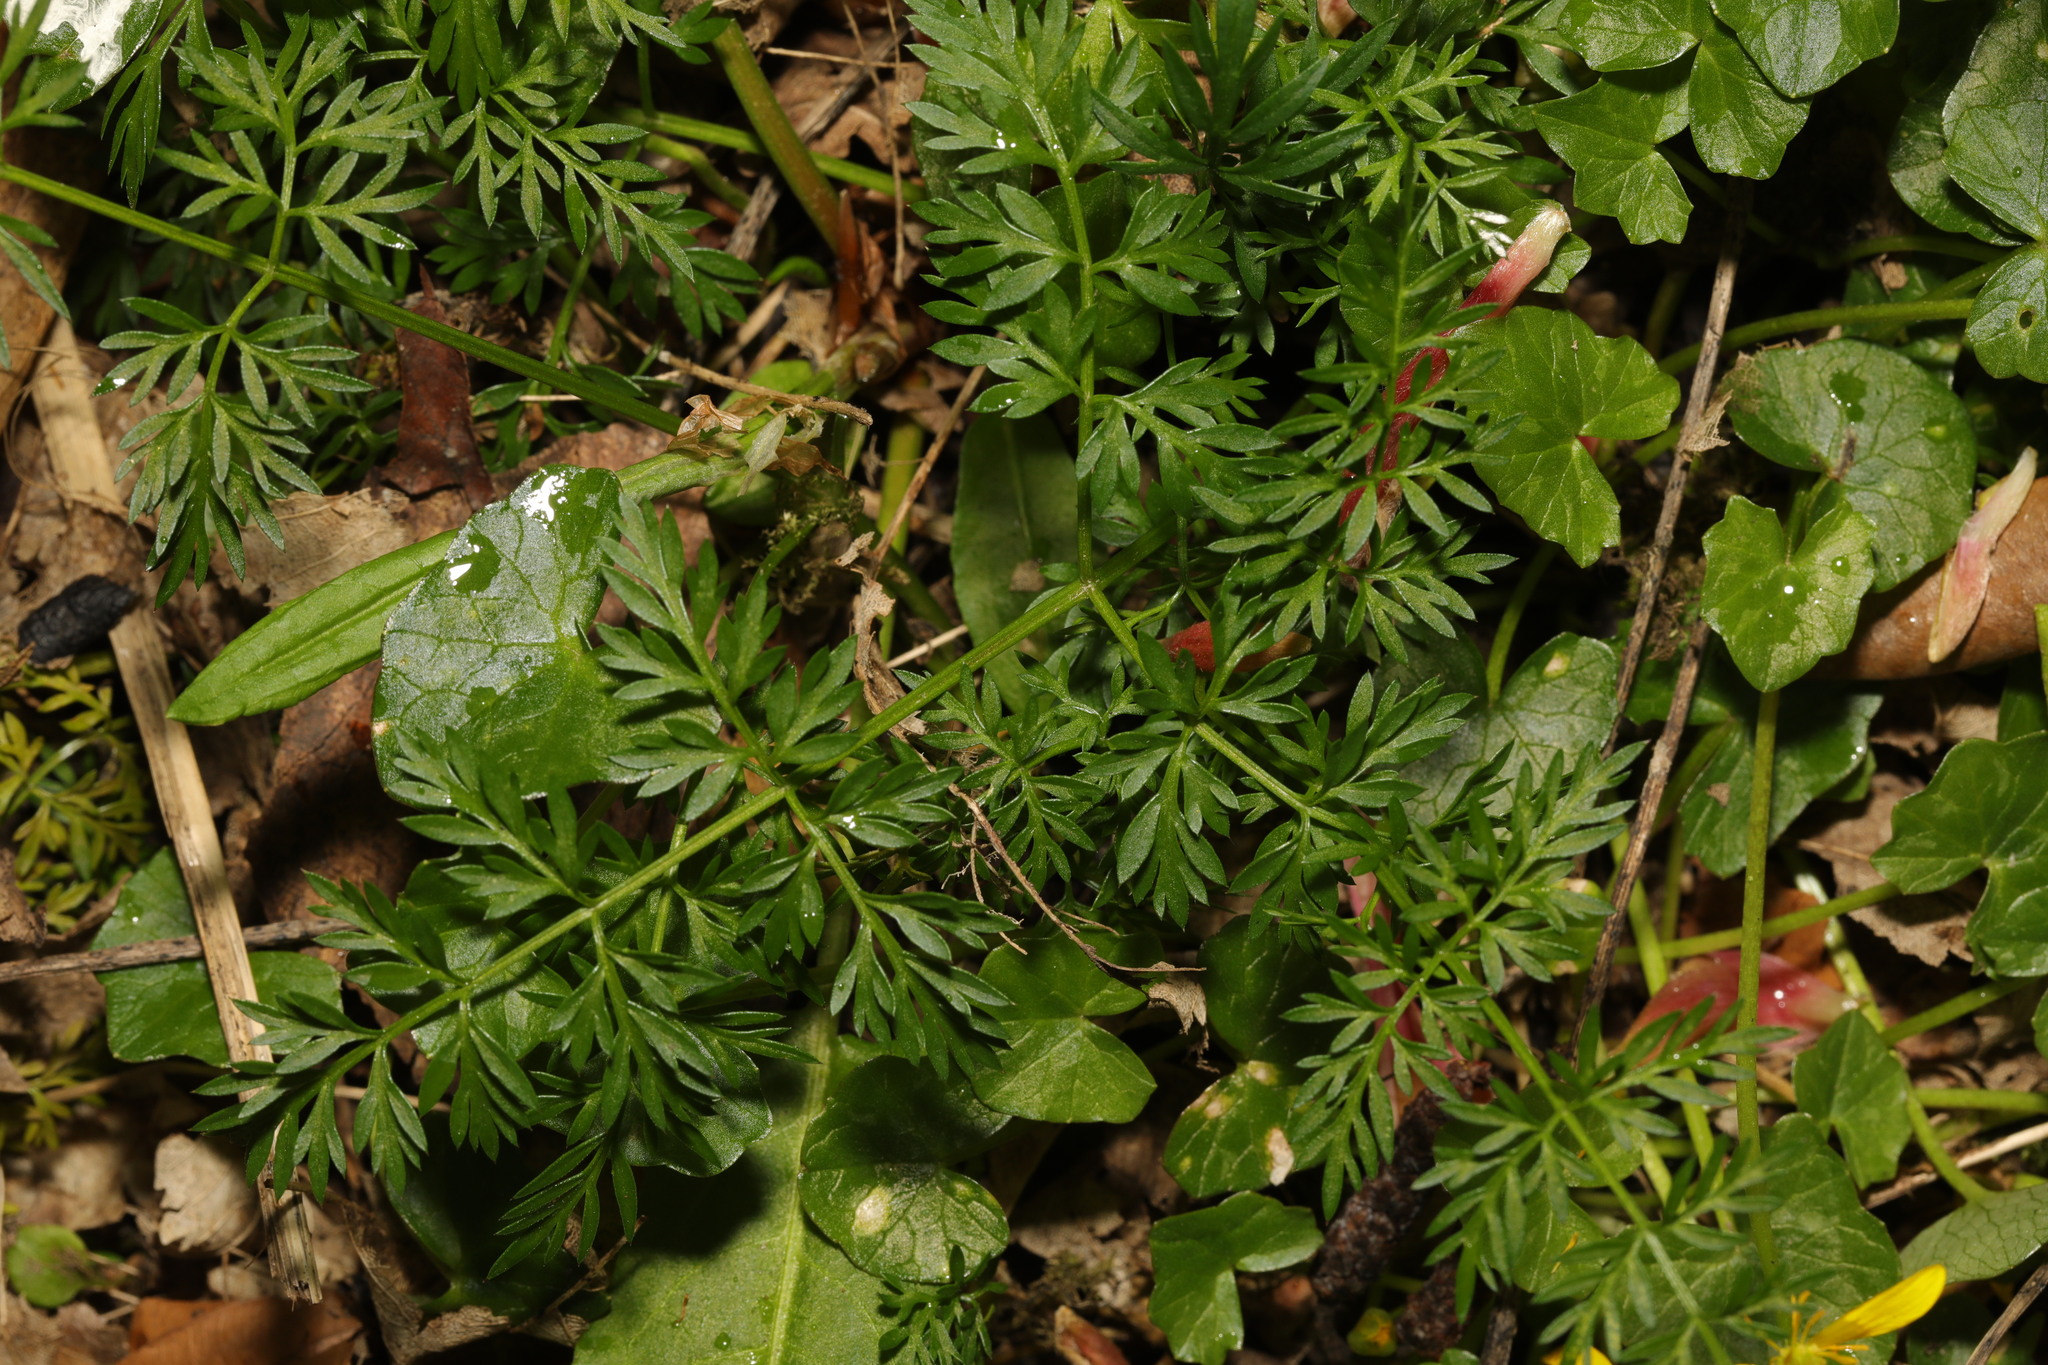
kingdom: Plantae
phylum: Tracheophyta
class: Magnoliopsida
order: Apiales
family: Apiaceae
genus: Conopodium
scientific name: Conopodium majus
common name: Pignut
